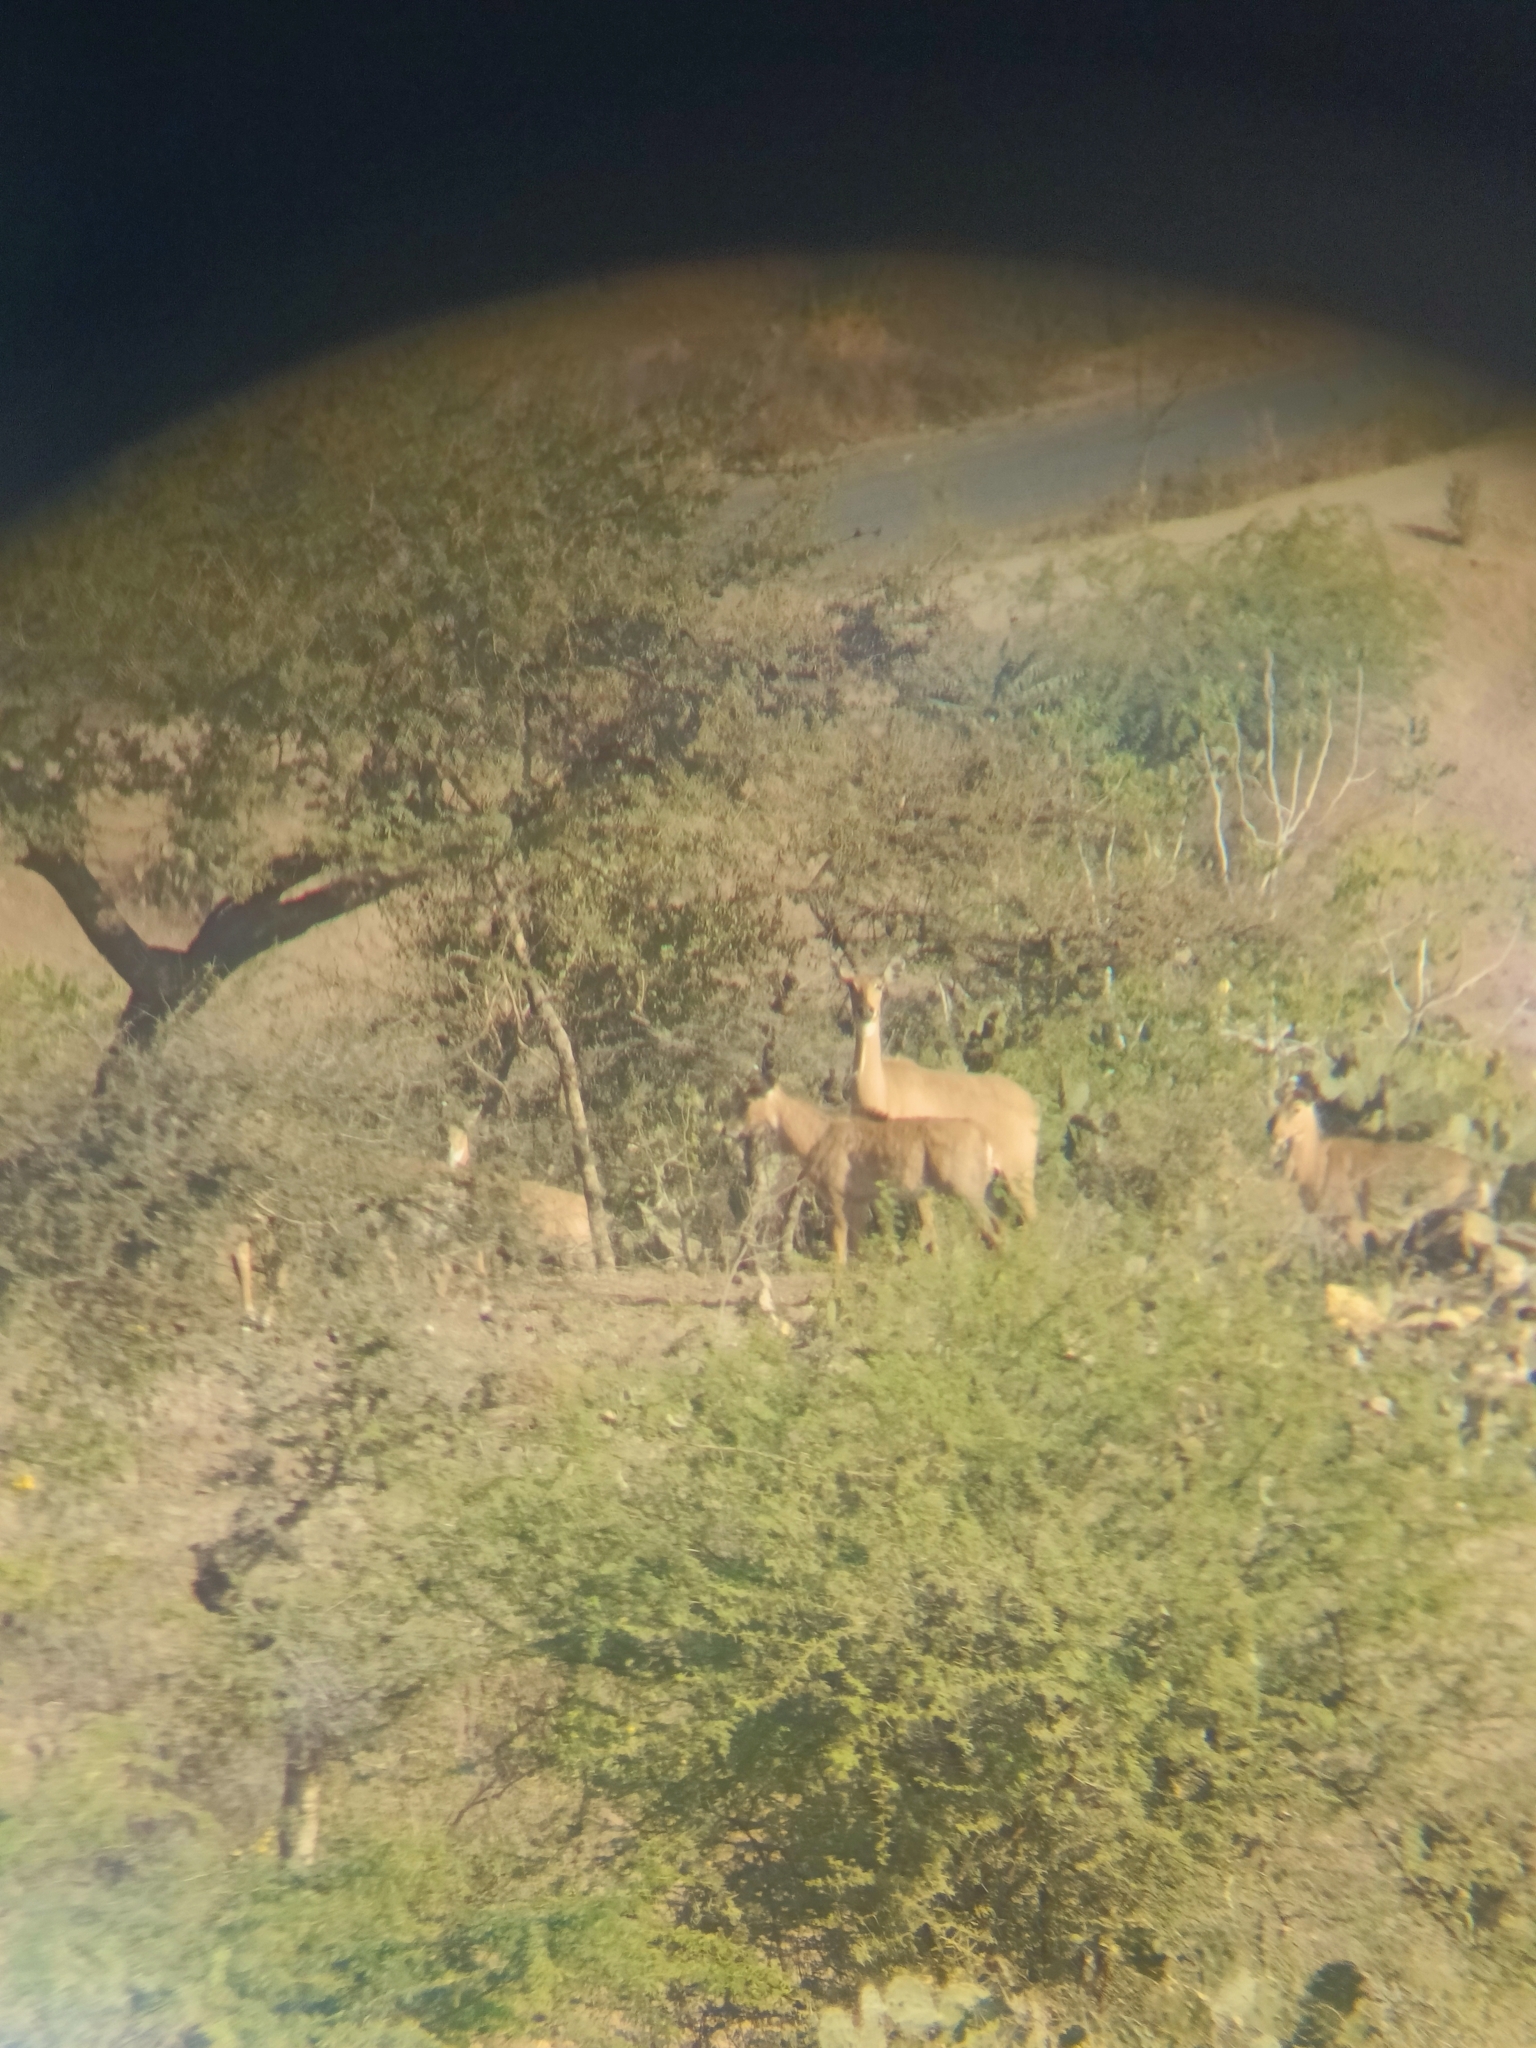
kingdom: Animalia
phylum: Chordata
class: Mammalia
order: Artiodactyla
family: Bovidae
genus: Boselaphus
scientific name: Boselaphus tragocamelus
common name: Nilgai
